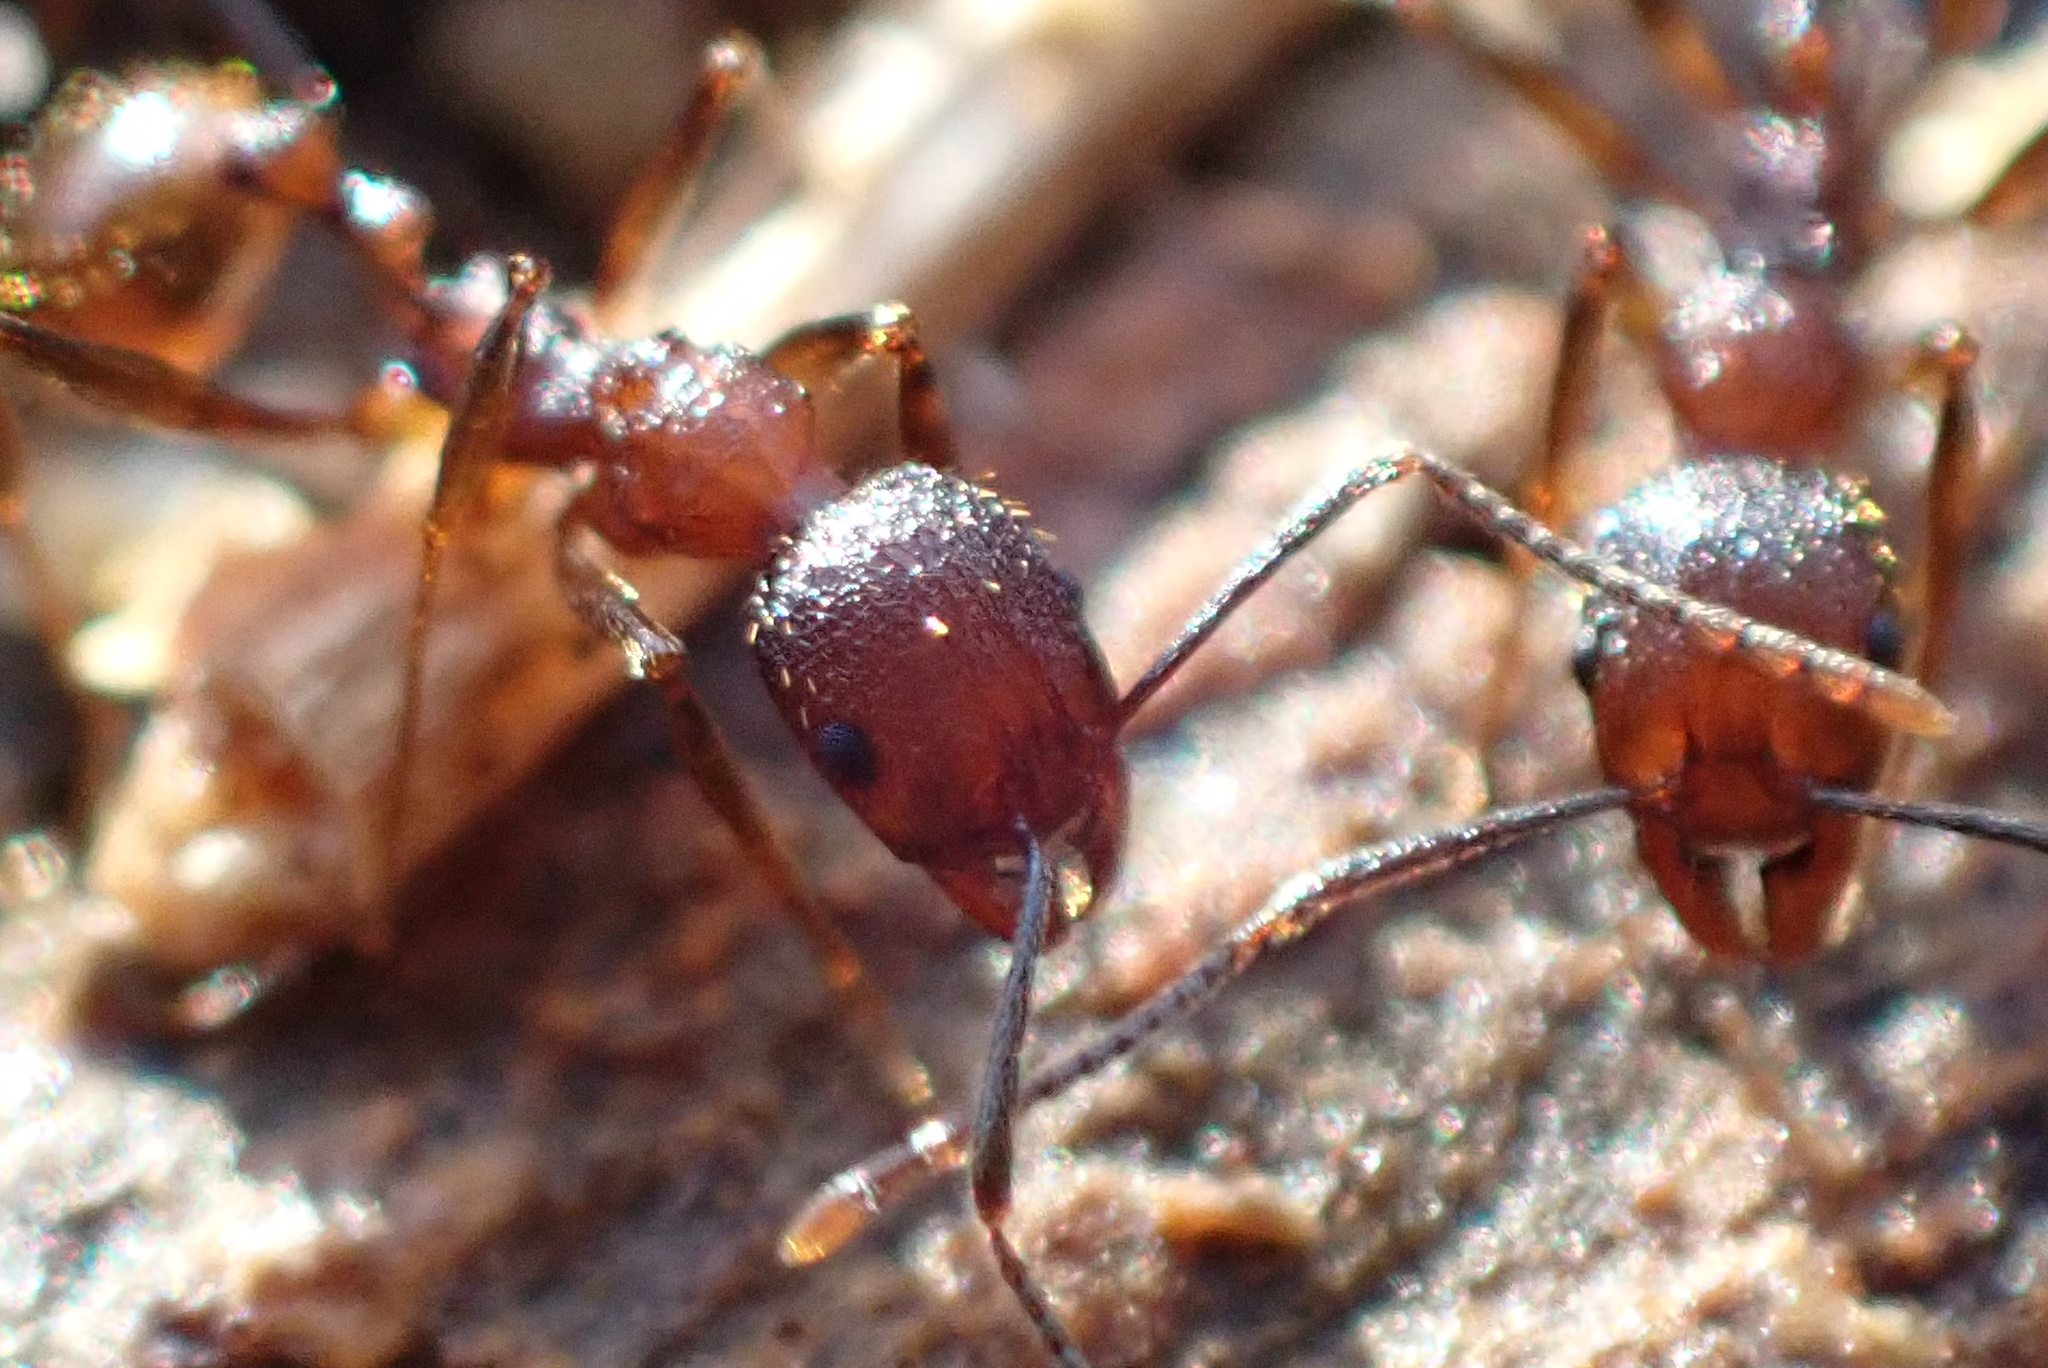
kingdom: Animalia
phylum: Arthropoda
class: Insecta
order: Hymenoptera
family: Formicidae
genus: Aphaenogaster
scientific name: Aphaenogaster fulva
